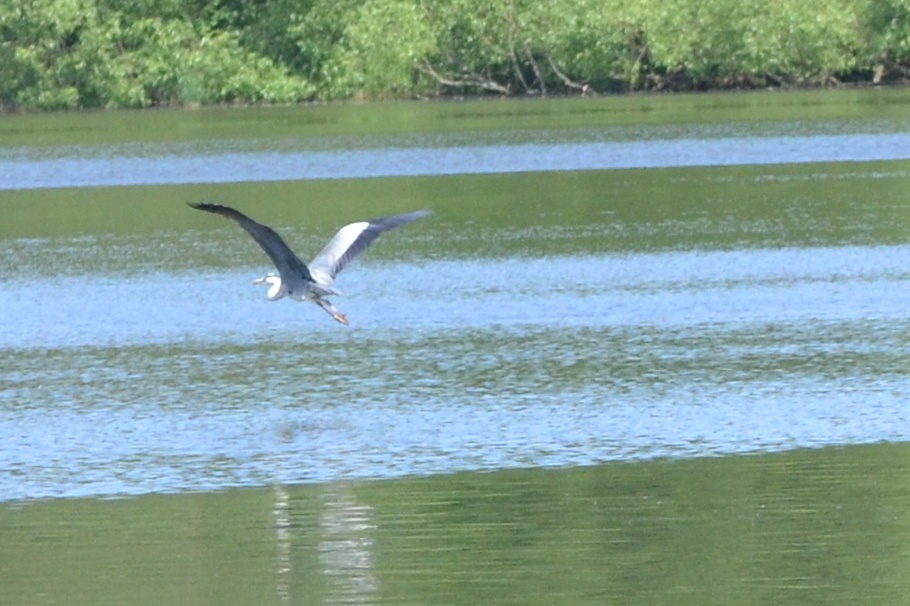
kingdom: Animalia
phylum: Chordata
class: Aves
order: Pelecaniformes
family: Ardeidae
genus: Ardea
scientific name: Ardea cinerea
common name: Grey heron
